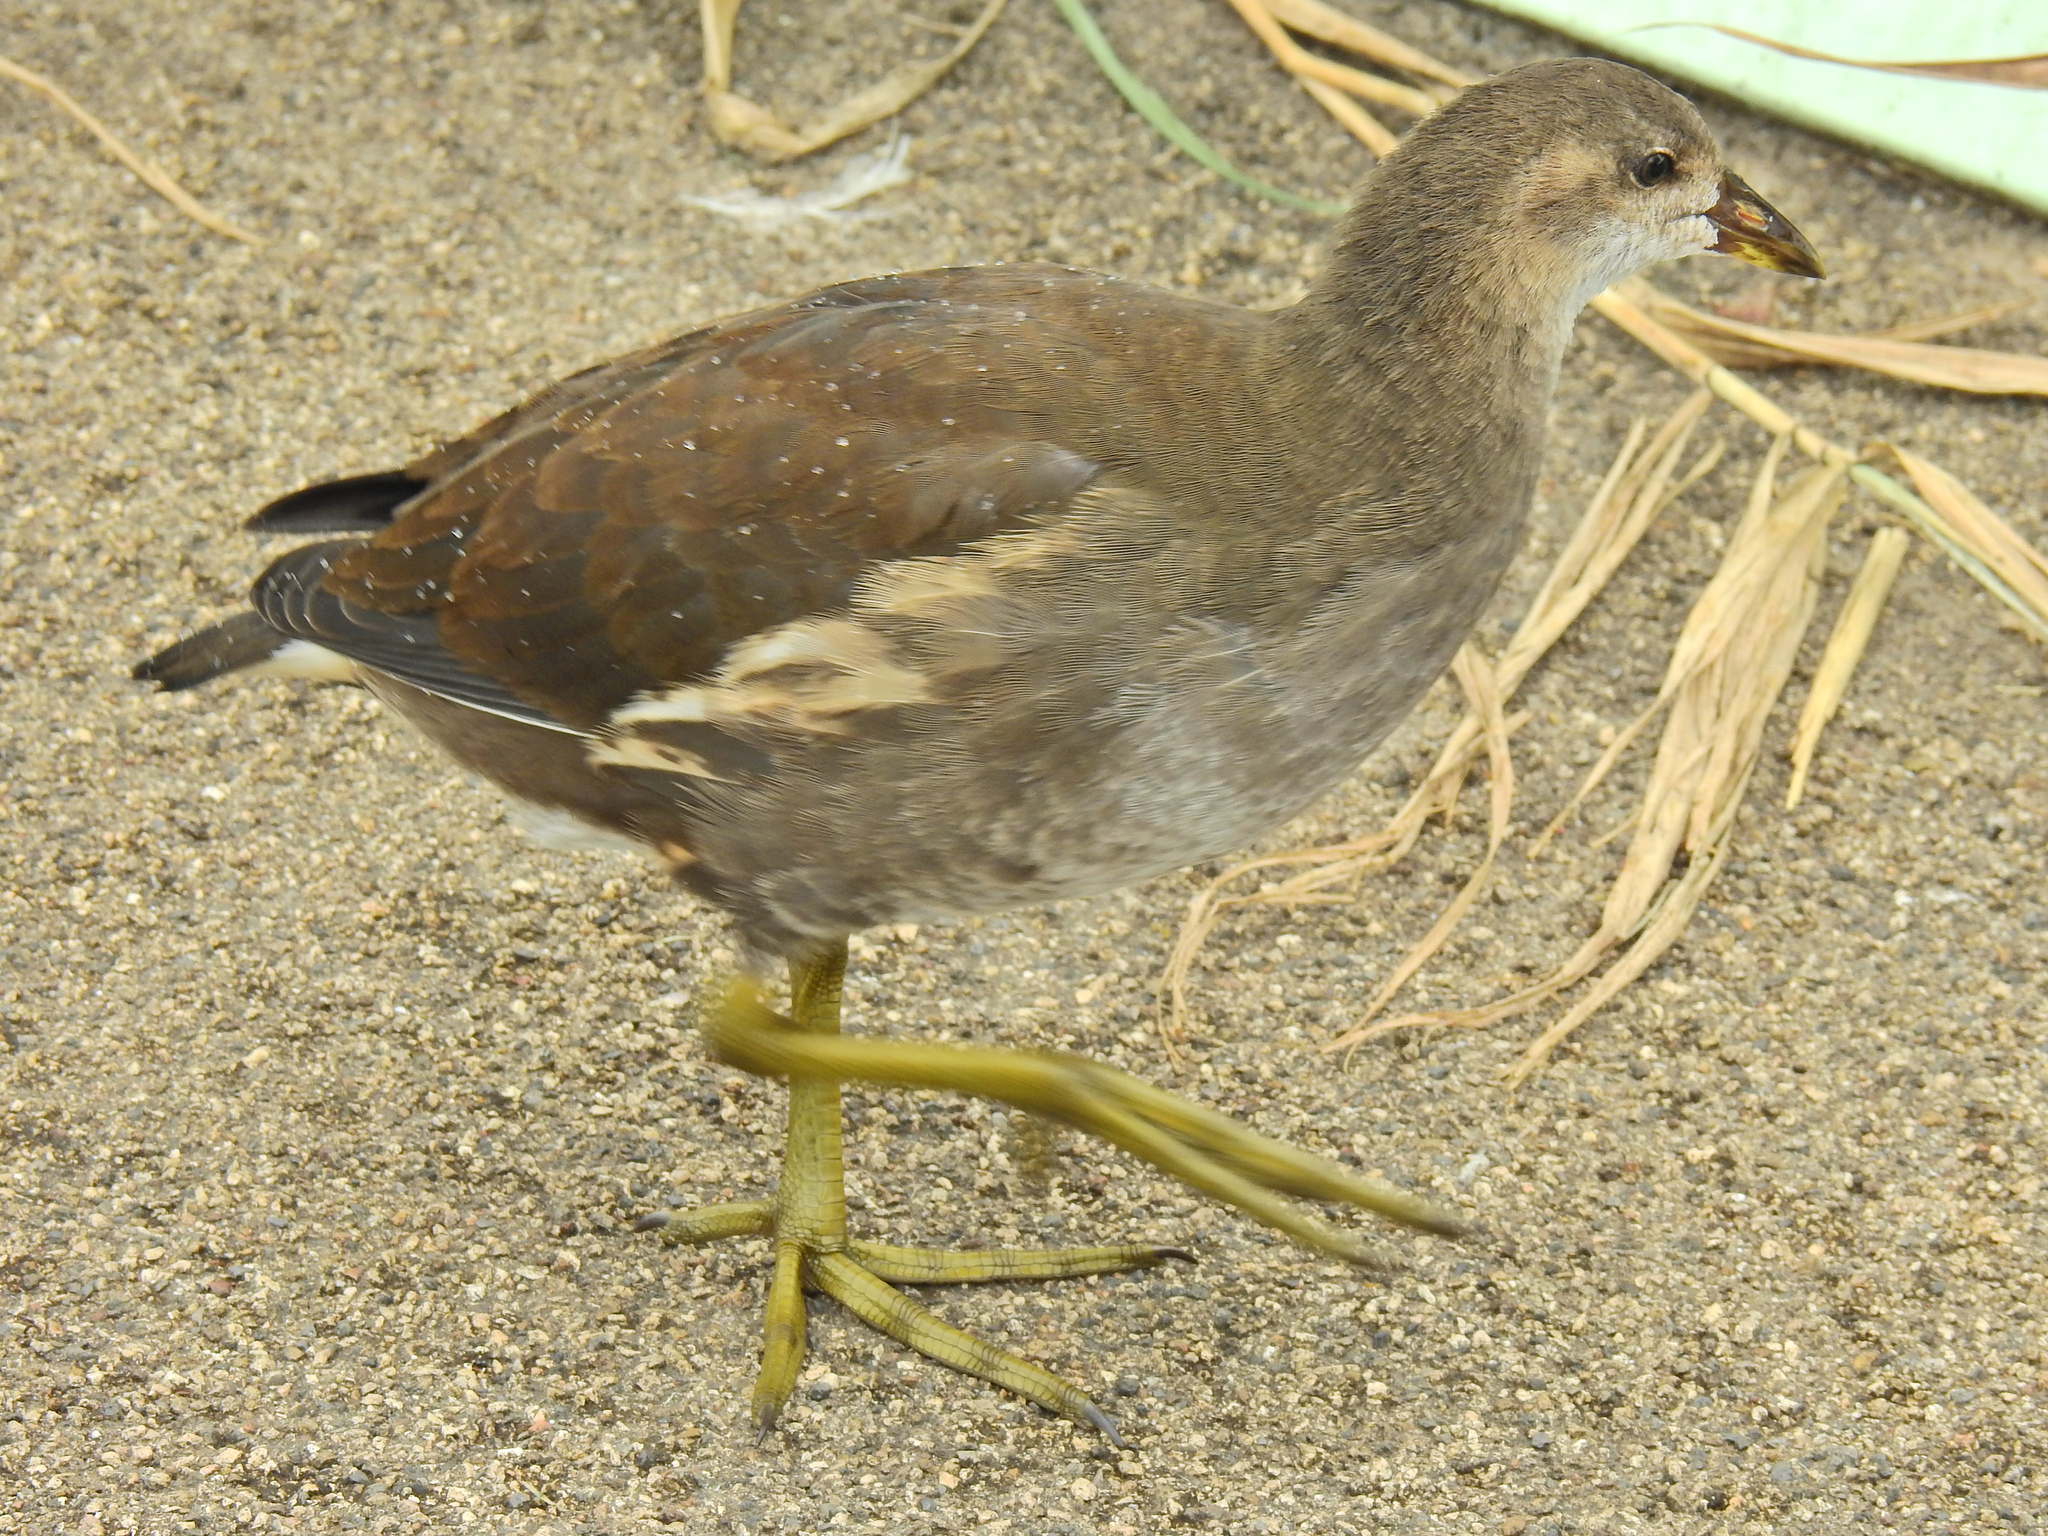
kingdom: Animalia
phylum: Chordata
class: Aves
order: Gruiformes
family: Rallidae
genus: Gallinula
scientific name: Gallinula chloropus
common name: Common moorhen
